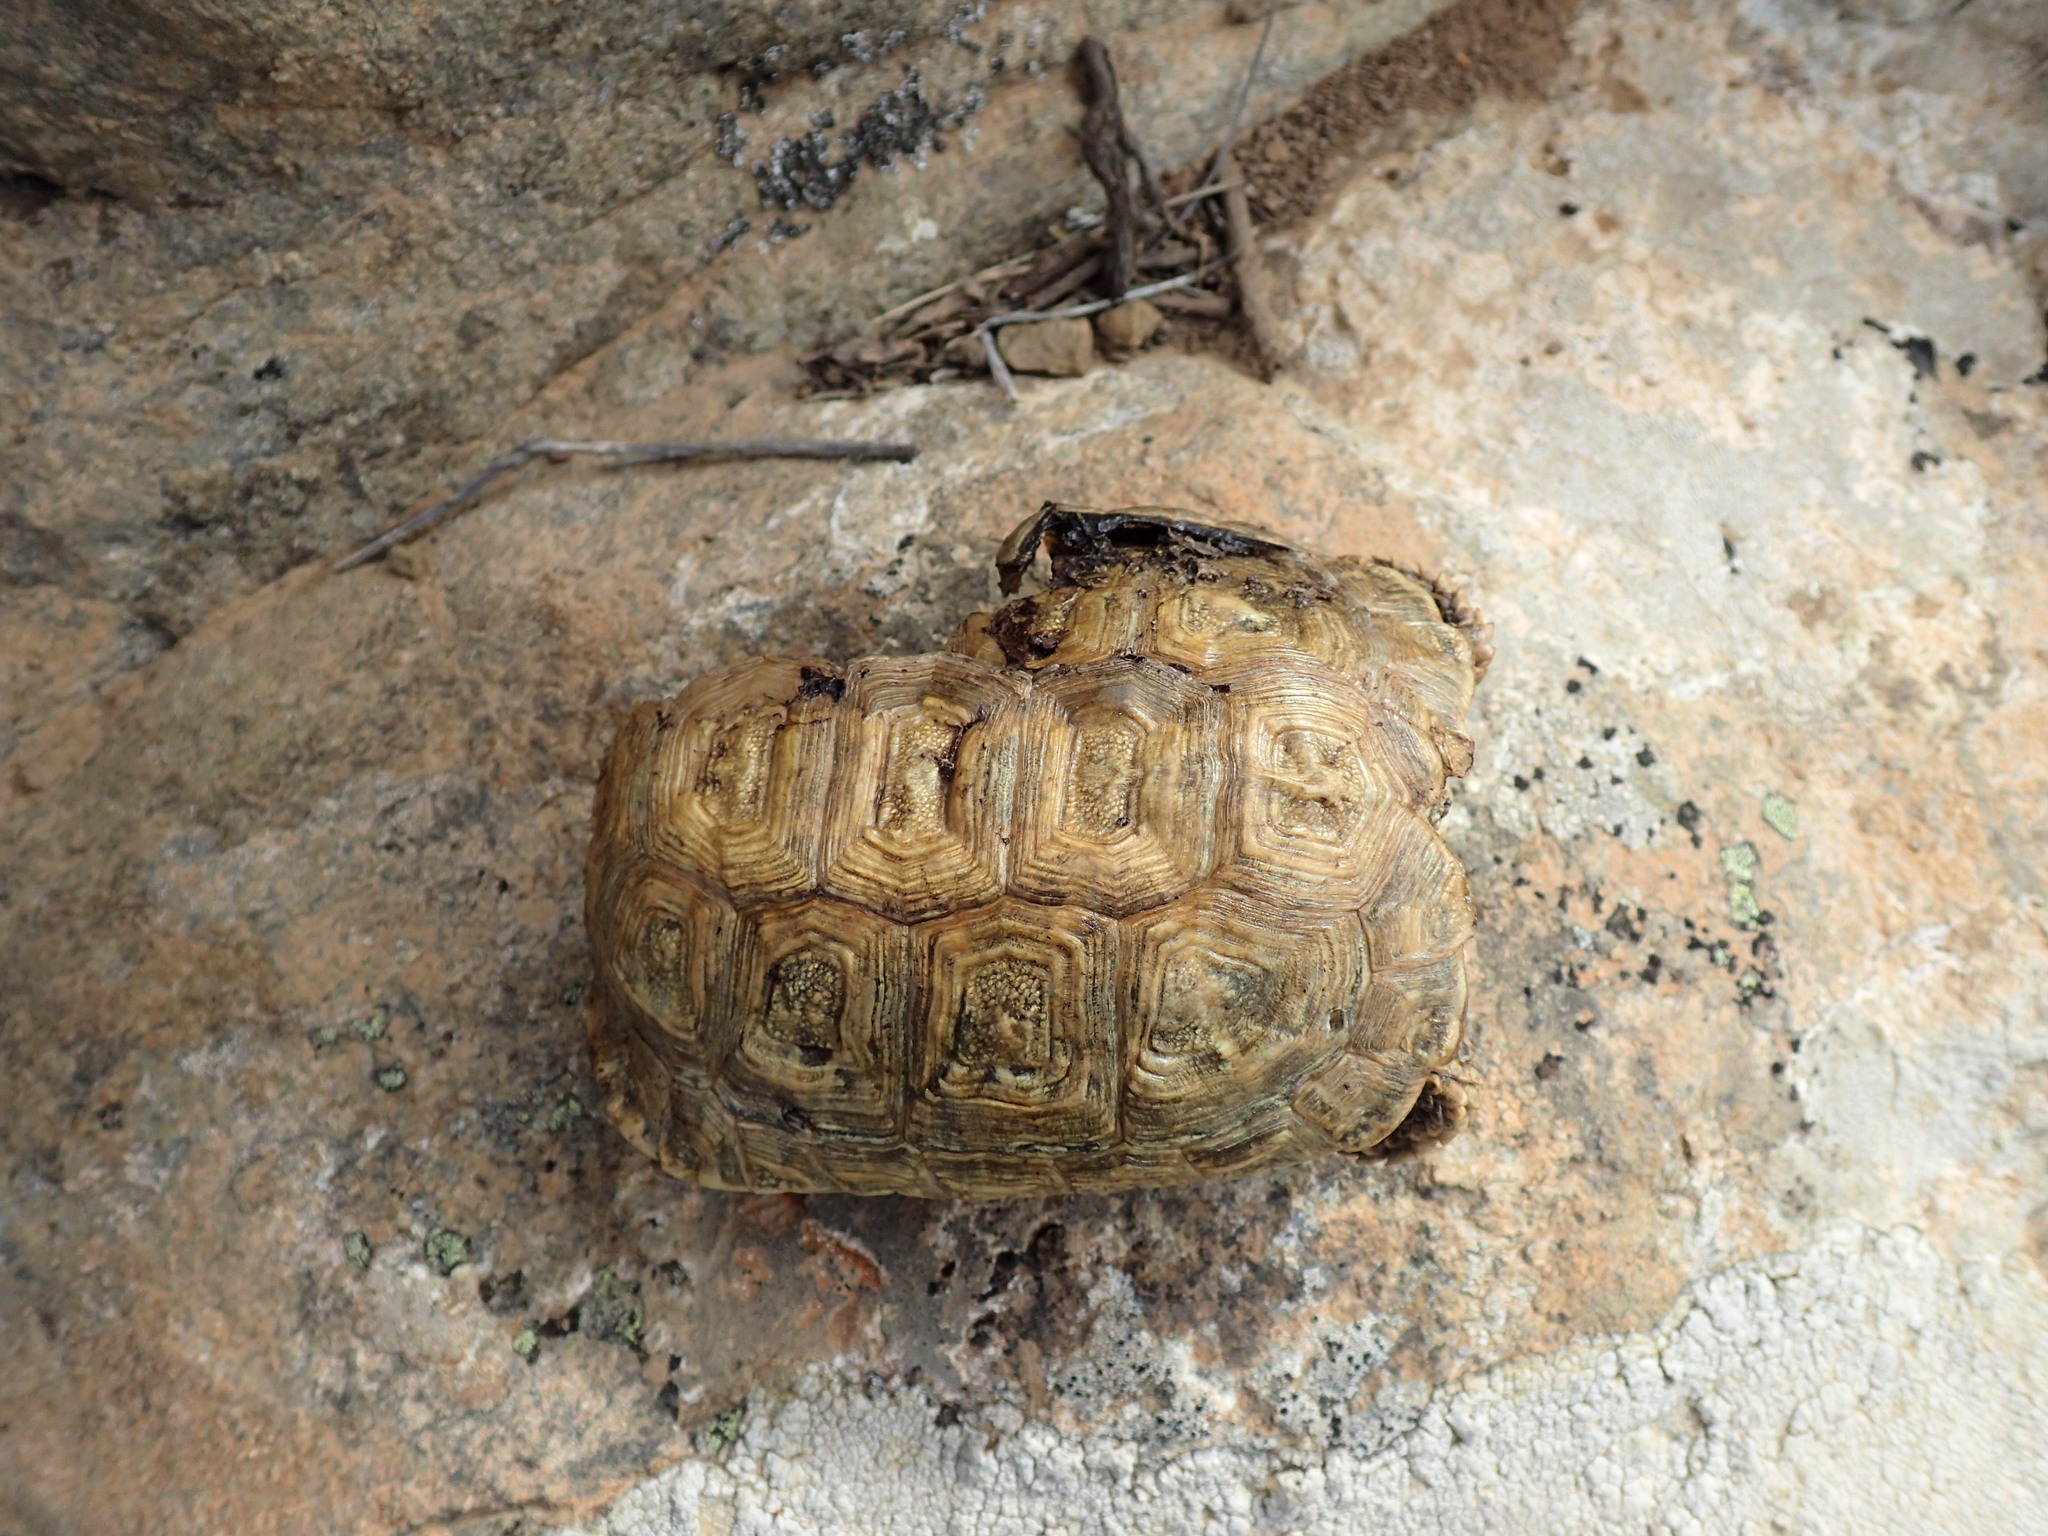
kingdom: Animalia
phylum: Chordata
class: Testudines
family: Testudinidae
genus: Chersobius
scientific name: Chersobius boulengeri
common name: Donner-weer tortoise
